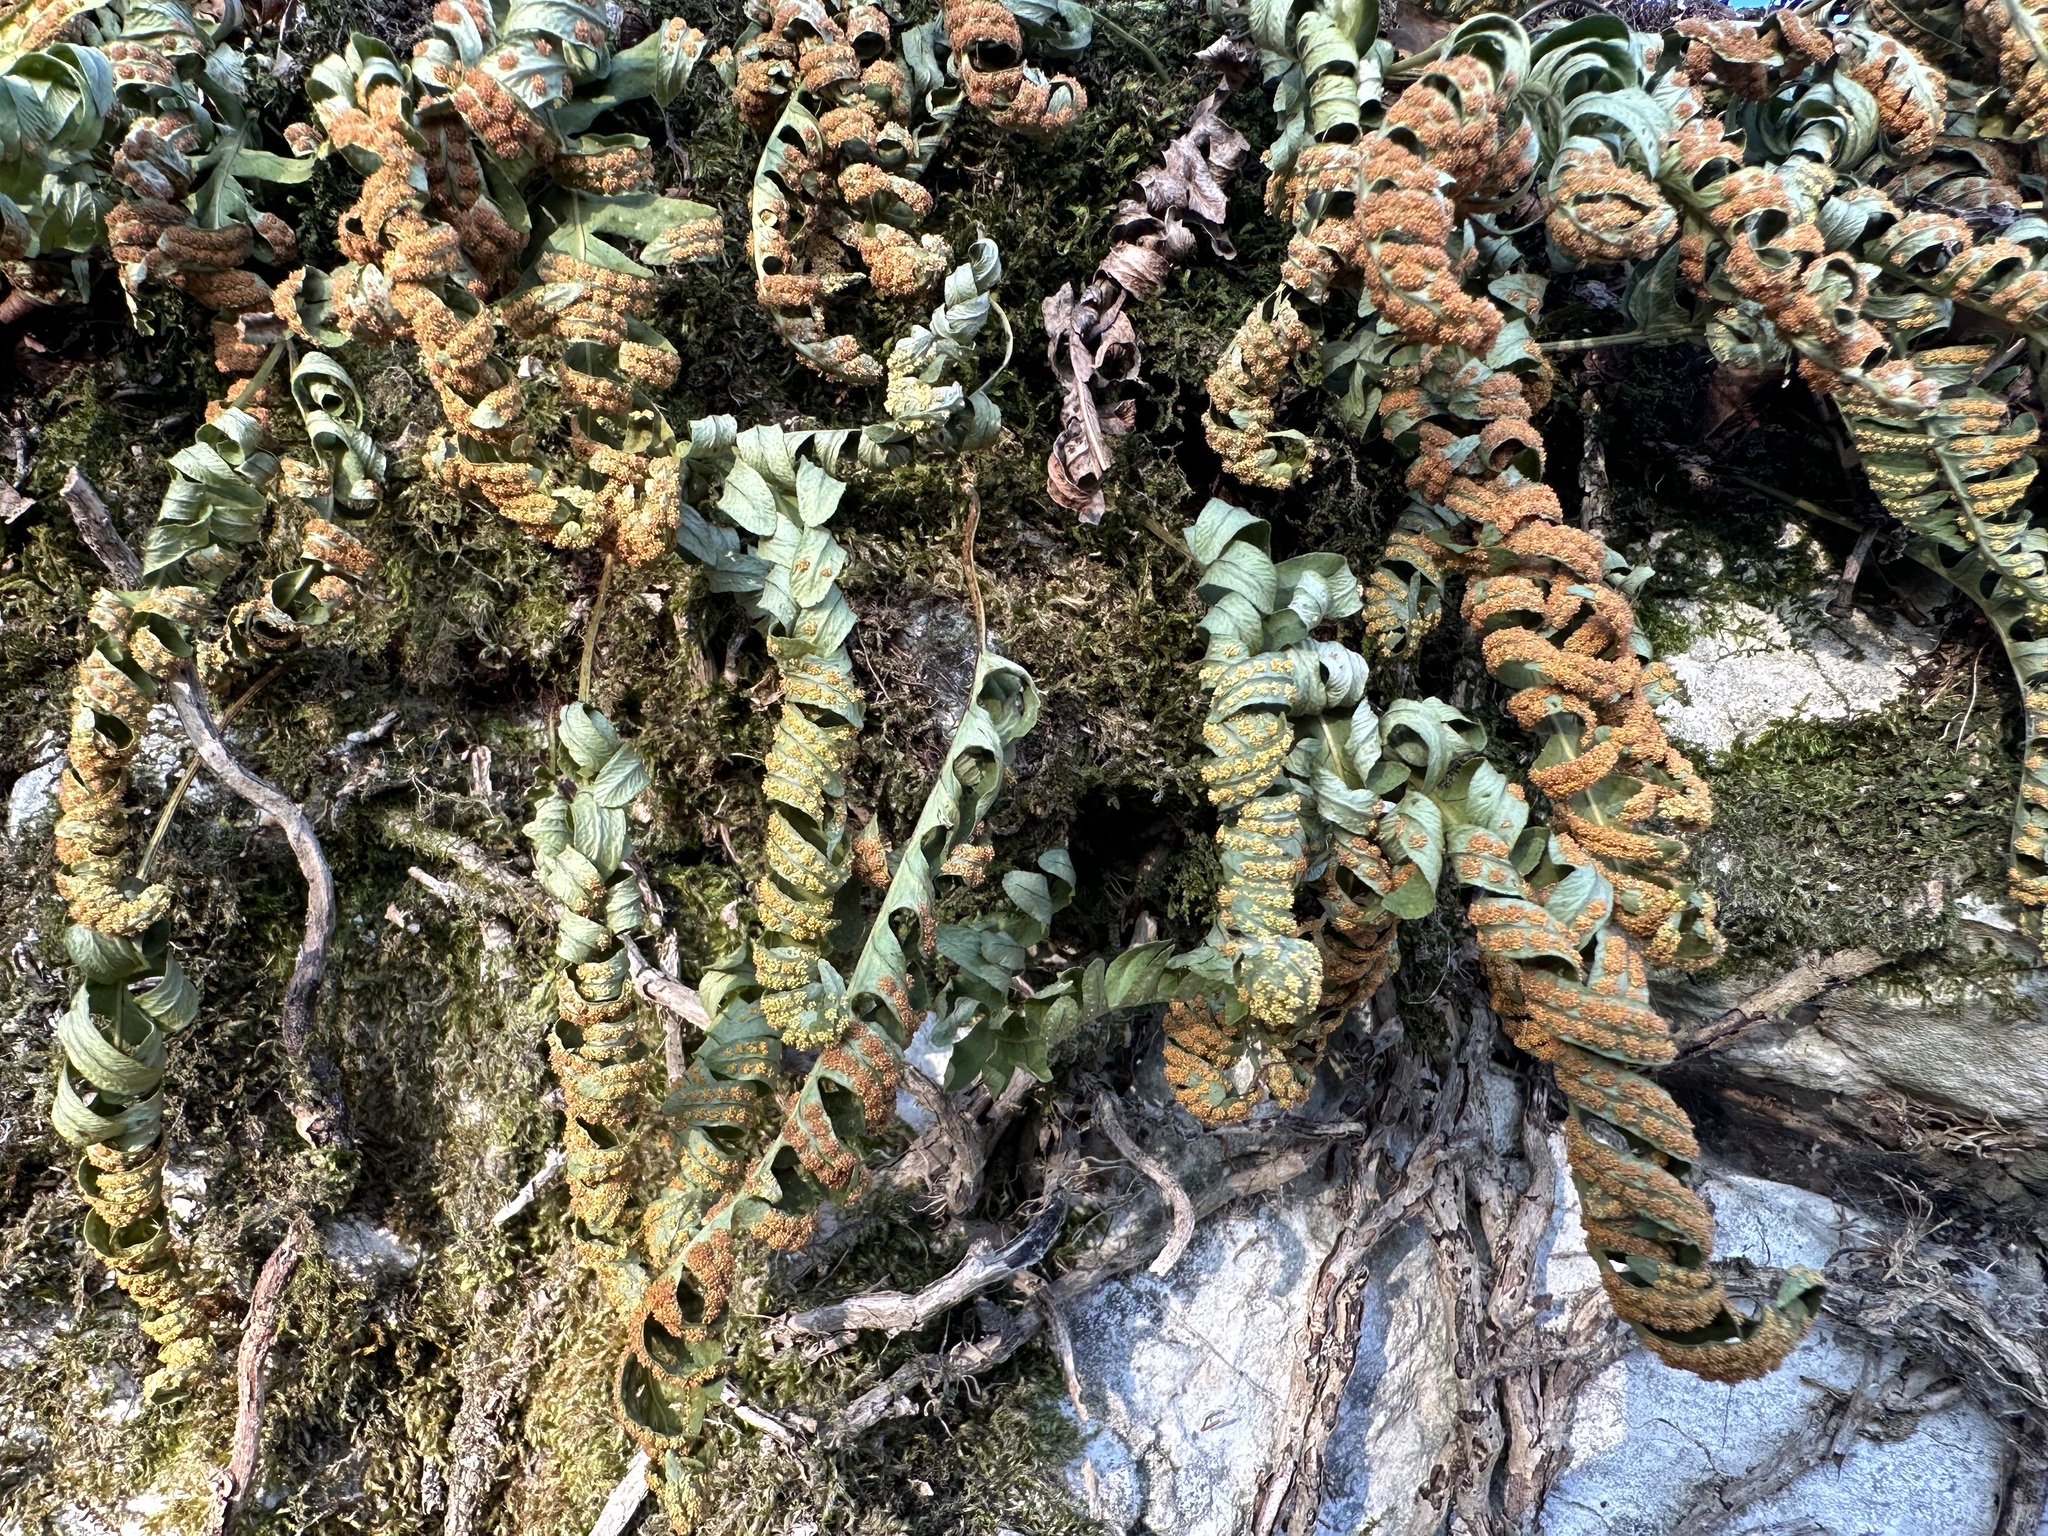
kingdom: Plantae
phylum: Tracheophyta
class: Polypodiopsida
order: Polypodiales
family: Polypodiaceae
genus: Polypodium
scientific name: Polypodium vulgare
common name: Common polypody
